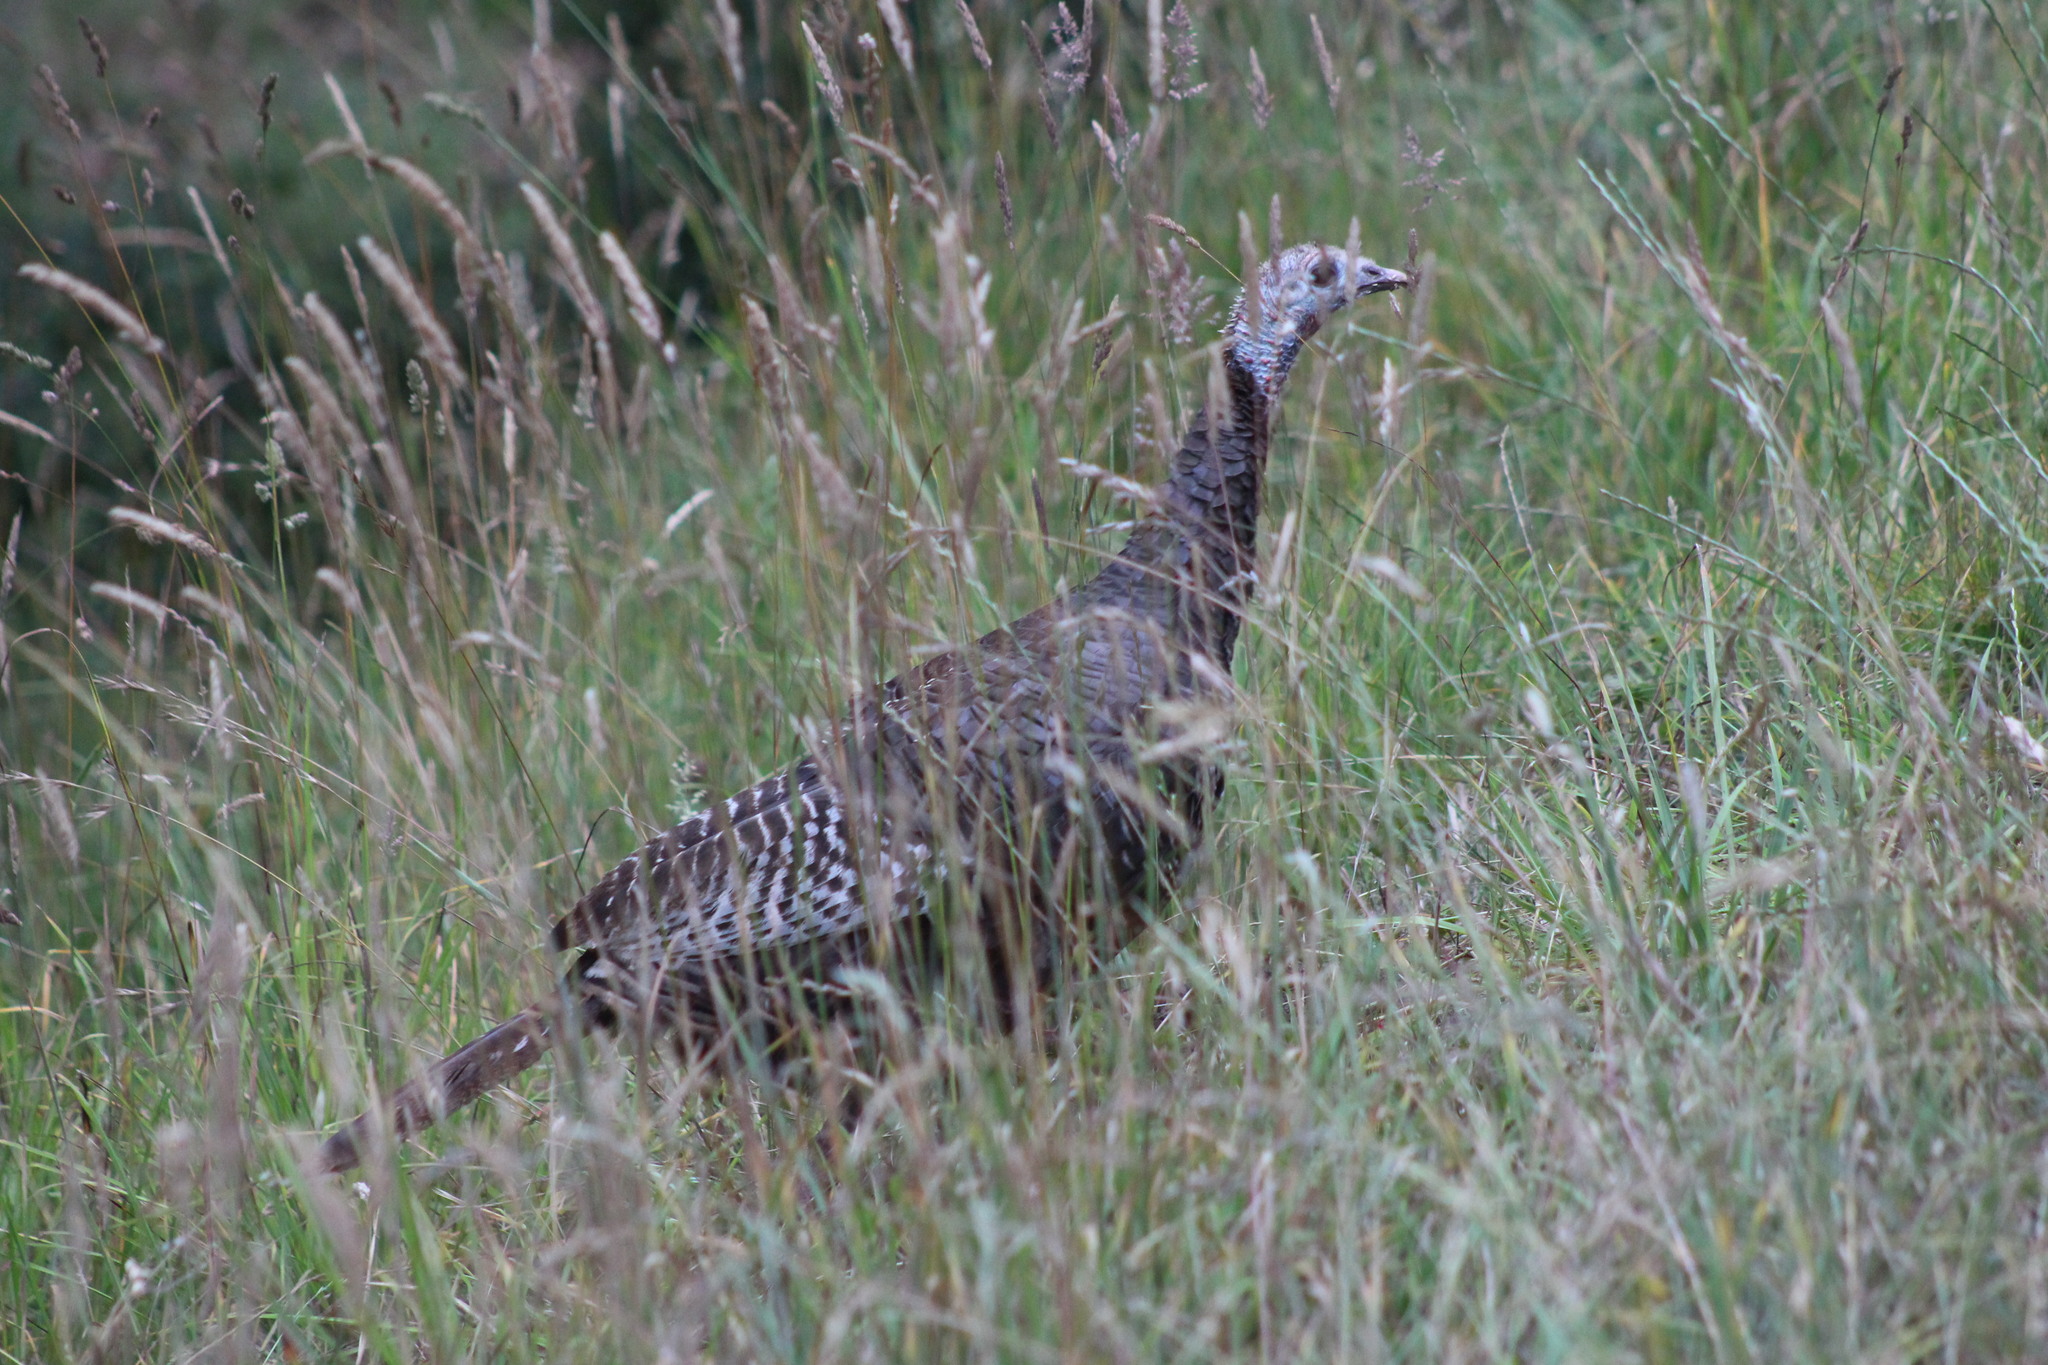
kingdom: Animalia
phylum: Chordata
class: Aves
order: Galliformes
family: Phasianidae
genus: Meleagris
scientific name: Meleagris gallopavo
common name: Wild turkey
